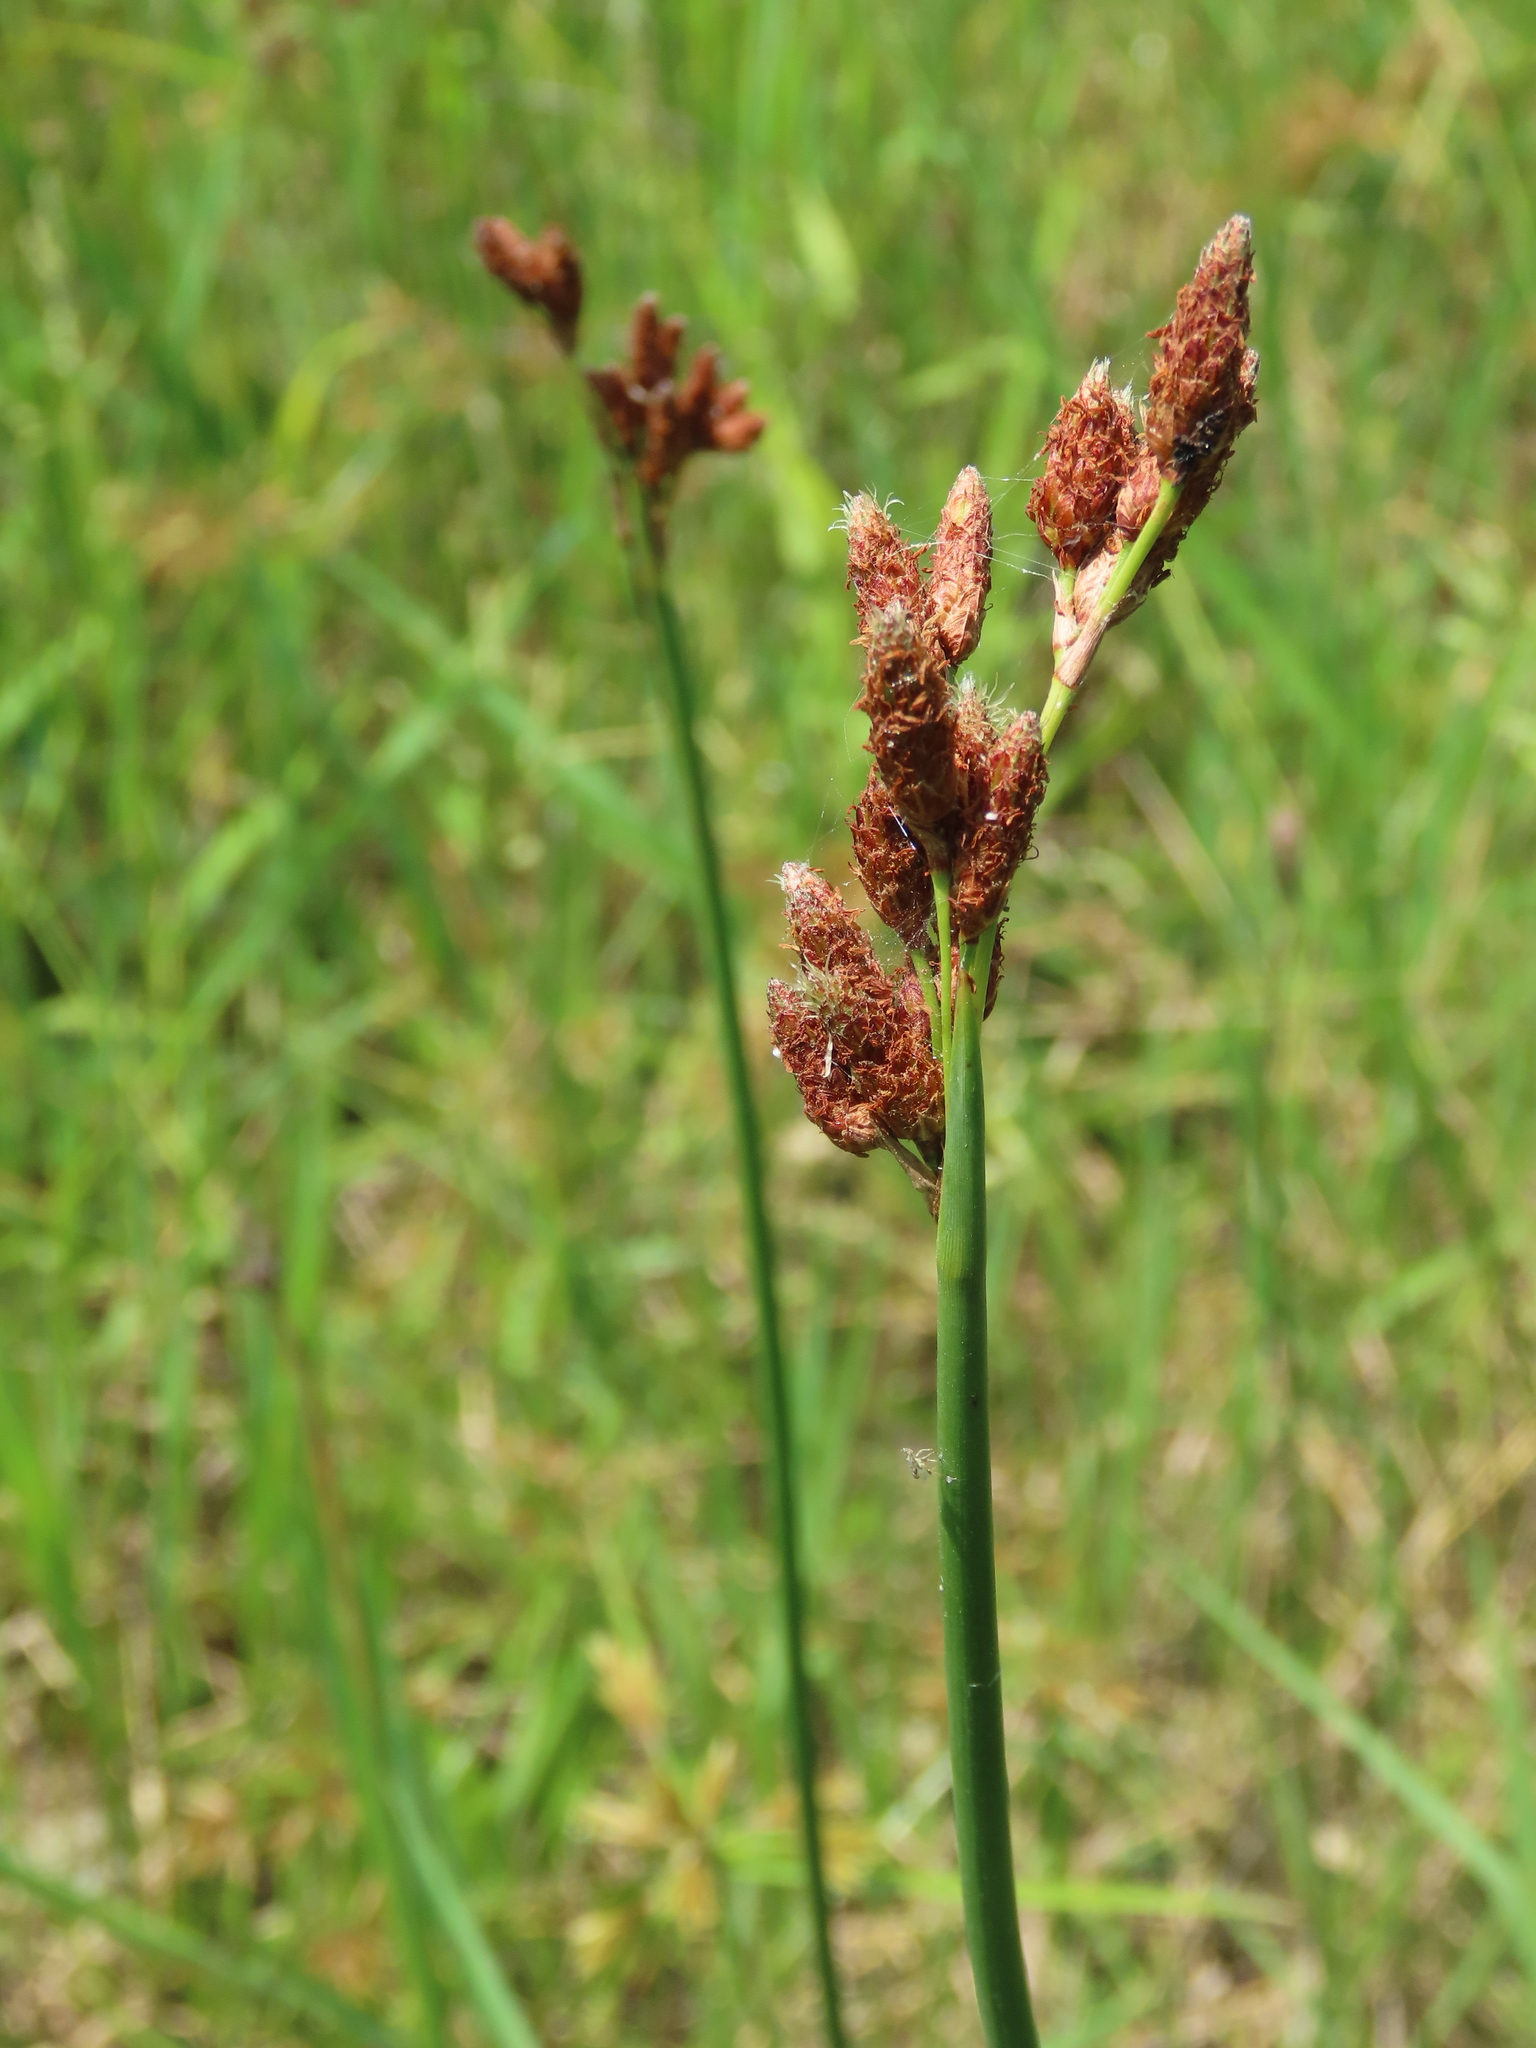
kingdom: Plantae
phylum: Tracheophyta
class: Liliopsida
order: Poales
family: Cyperaceae
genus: Schoenoplectus
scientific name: Schoenoplectus tabernaemontani
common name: Grey club-rush
